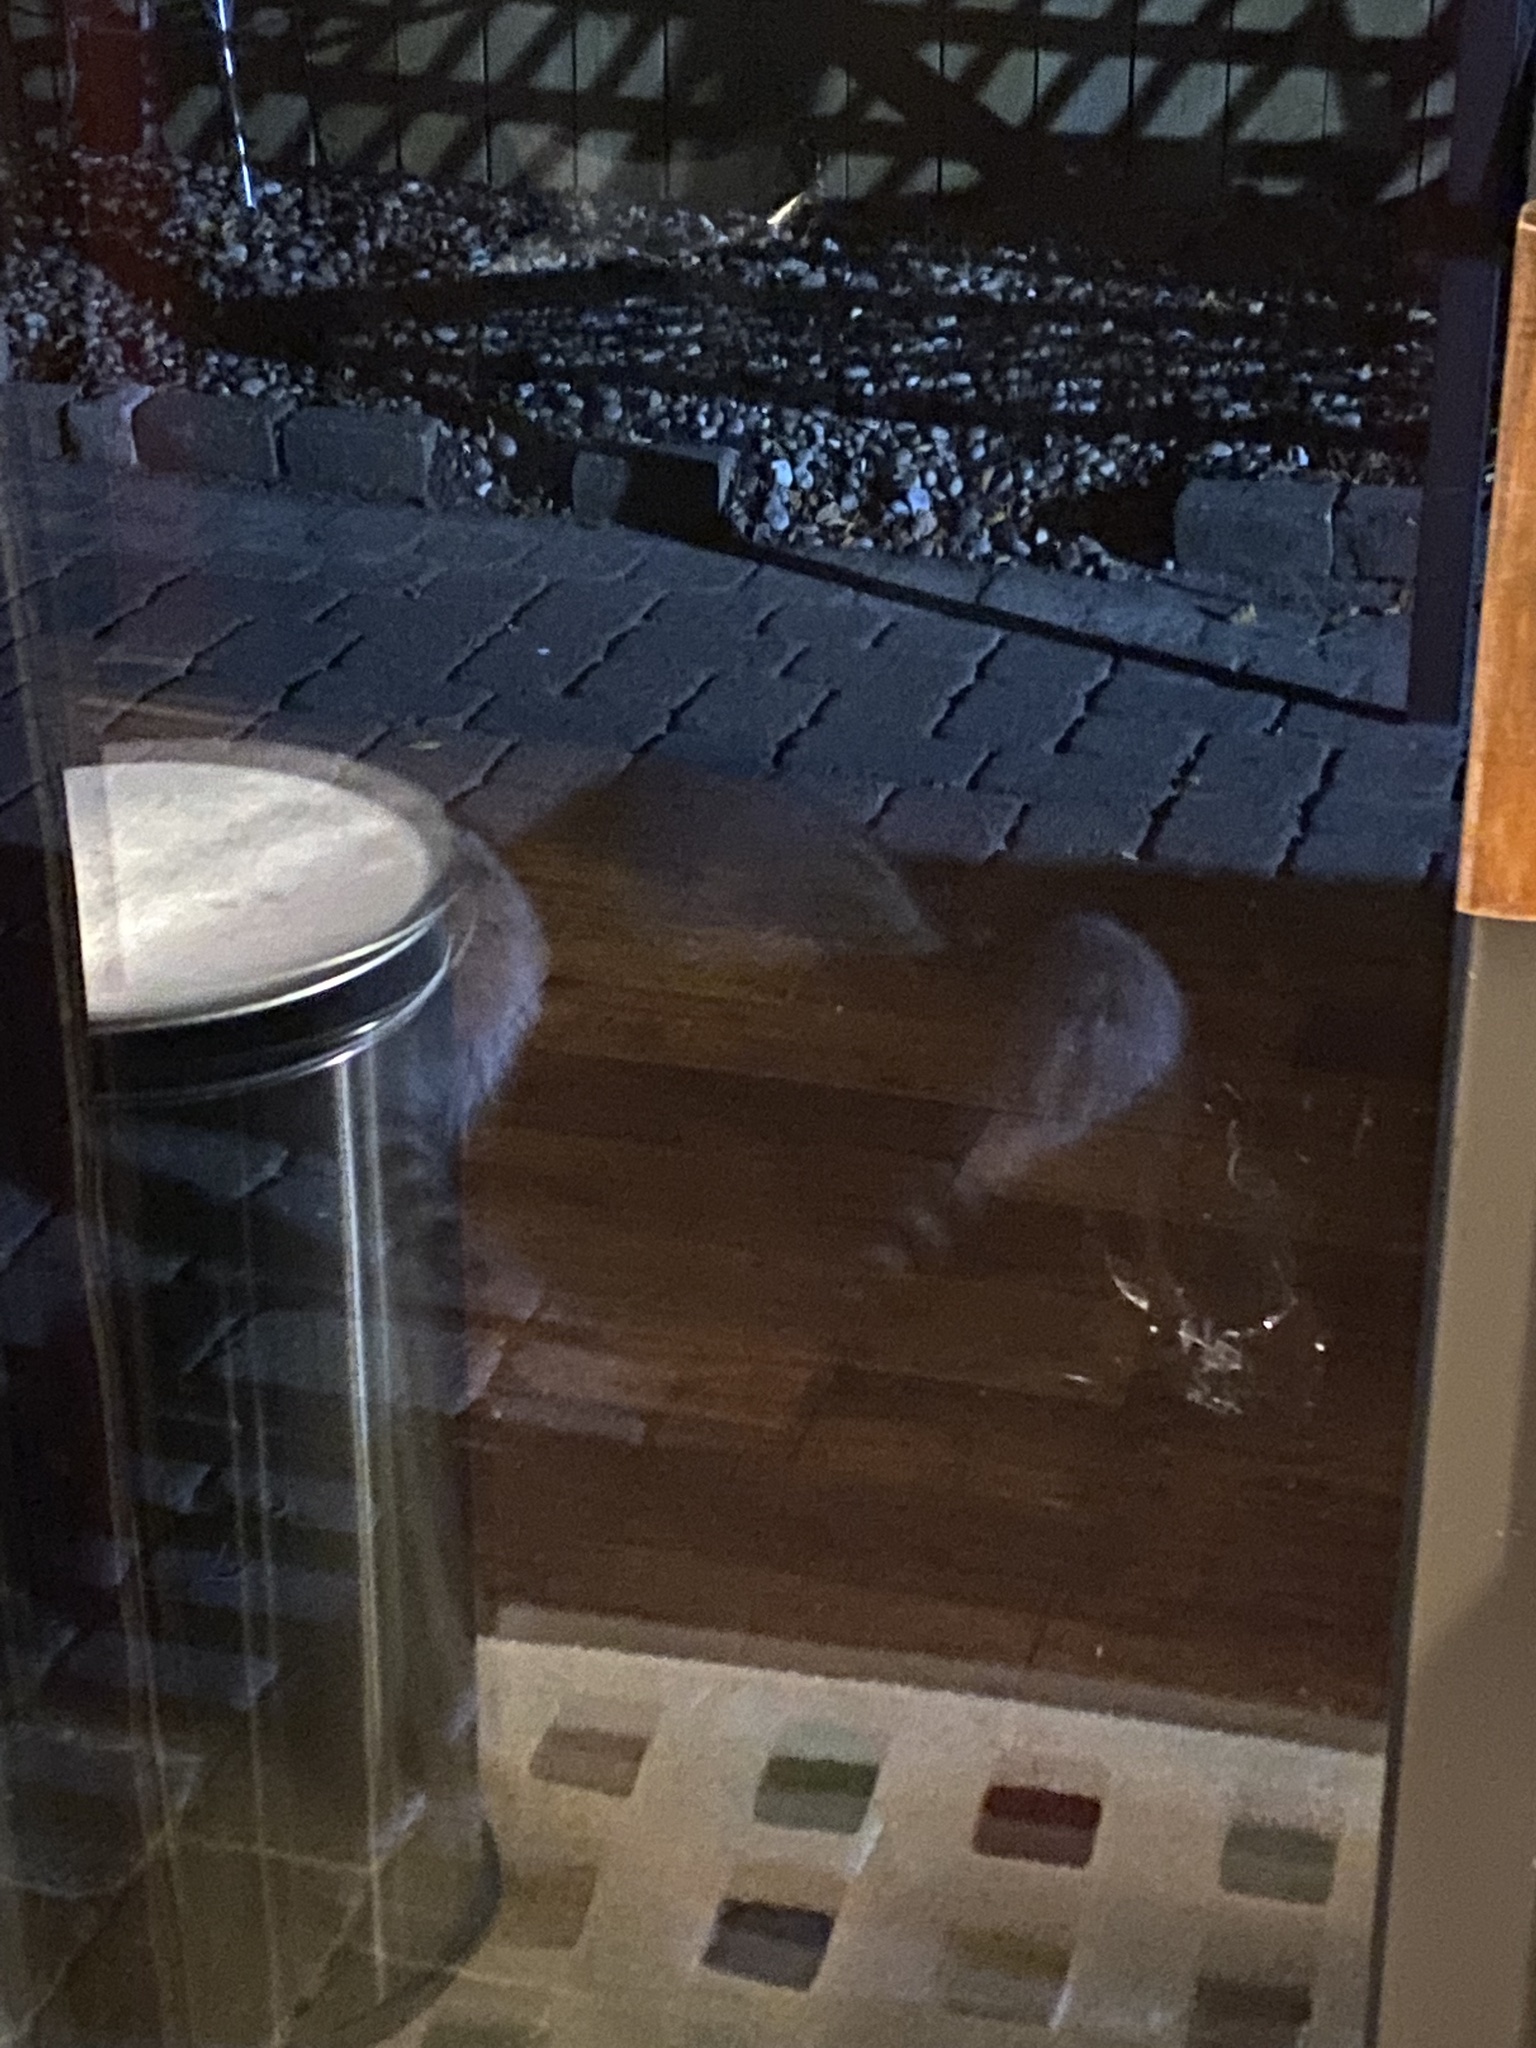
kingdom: Animalia
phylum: Chordata
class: Mammalia
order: Carnivora
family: Procyonidae
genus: Procyon
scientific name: Procyon lotor
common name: Raccoon
